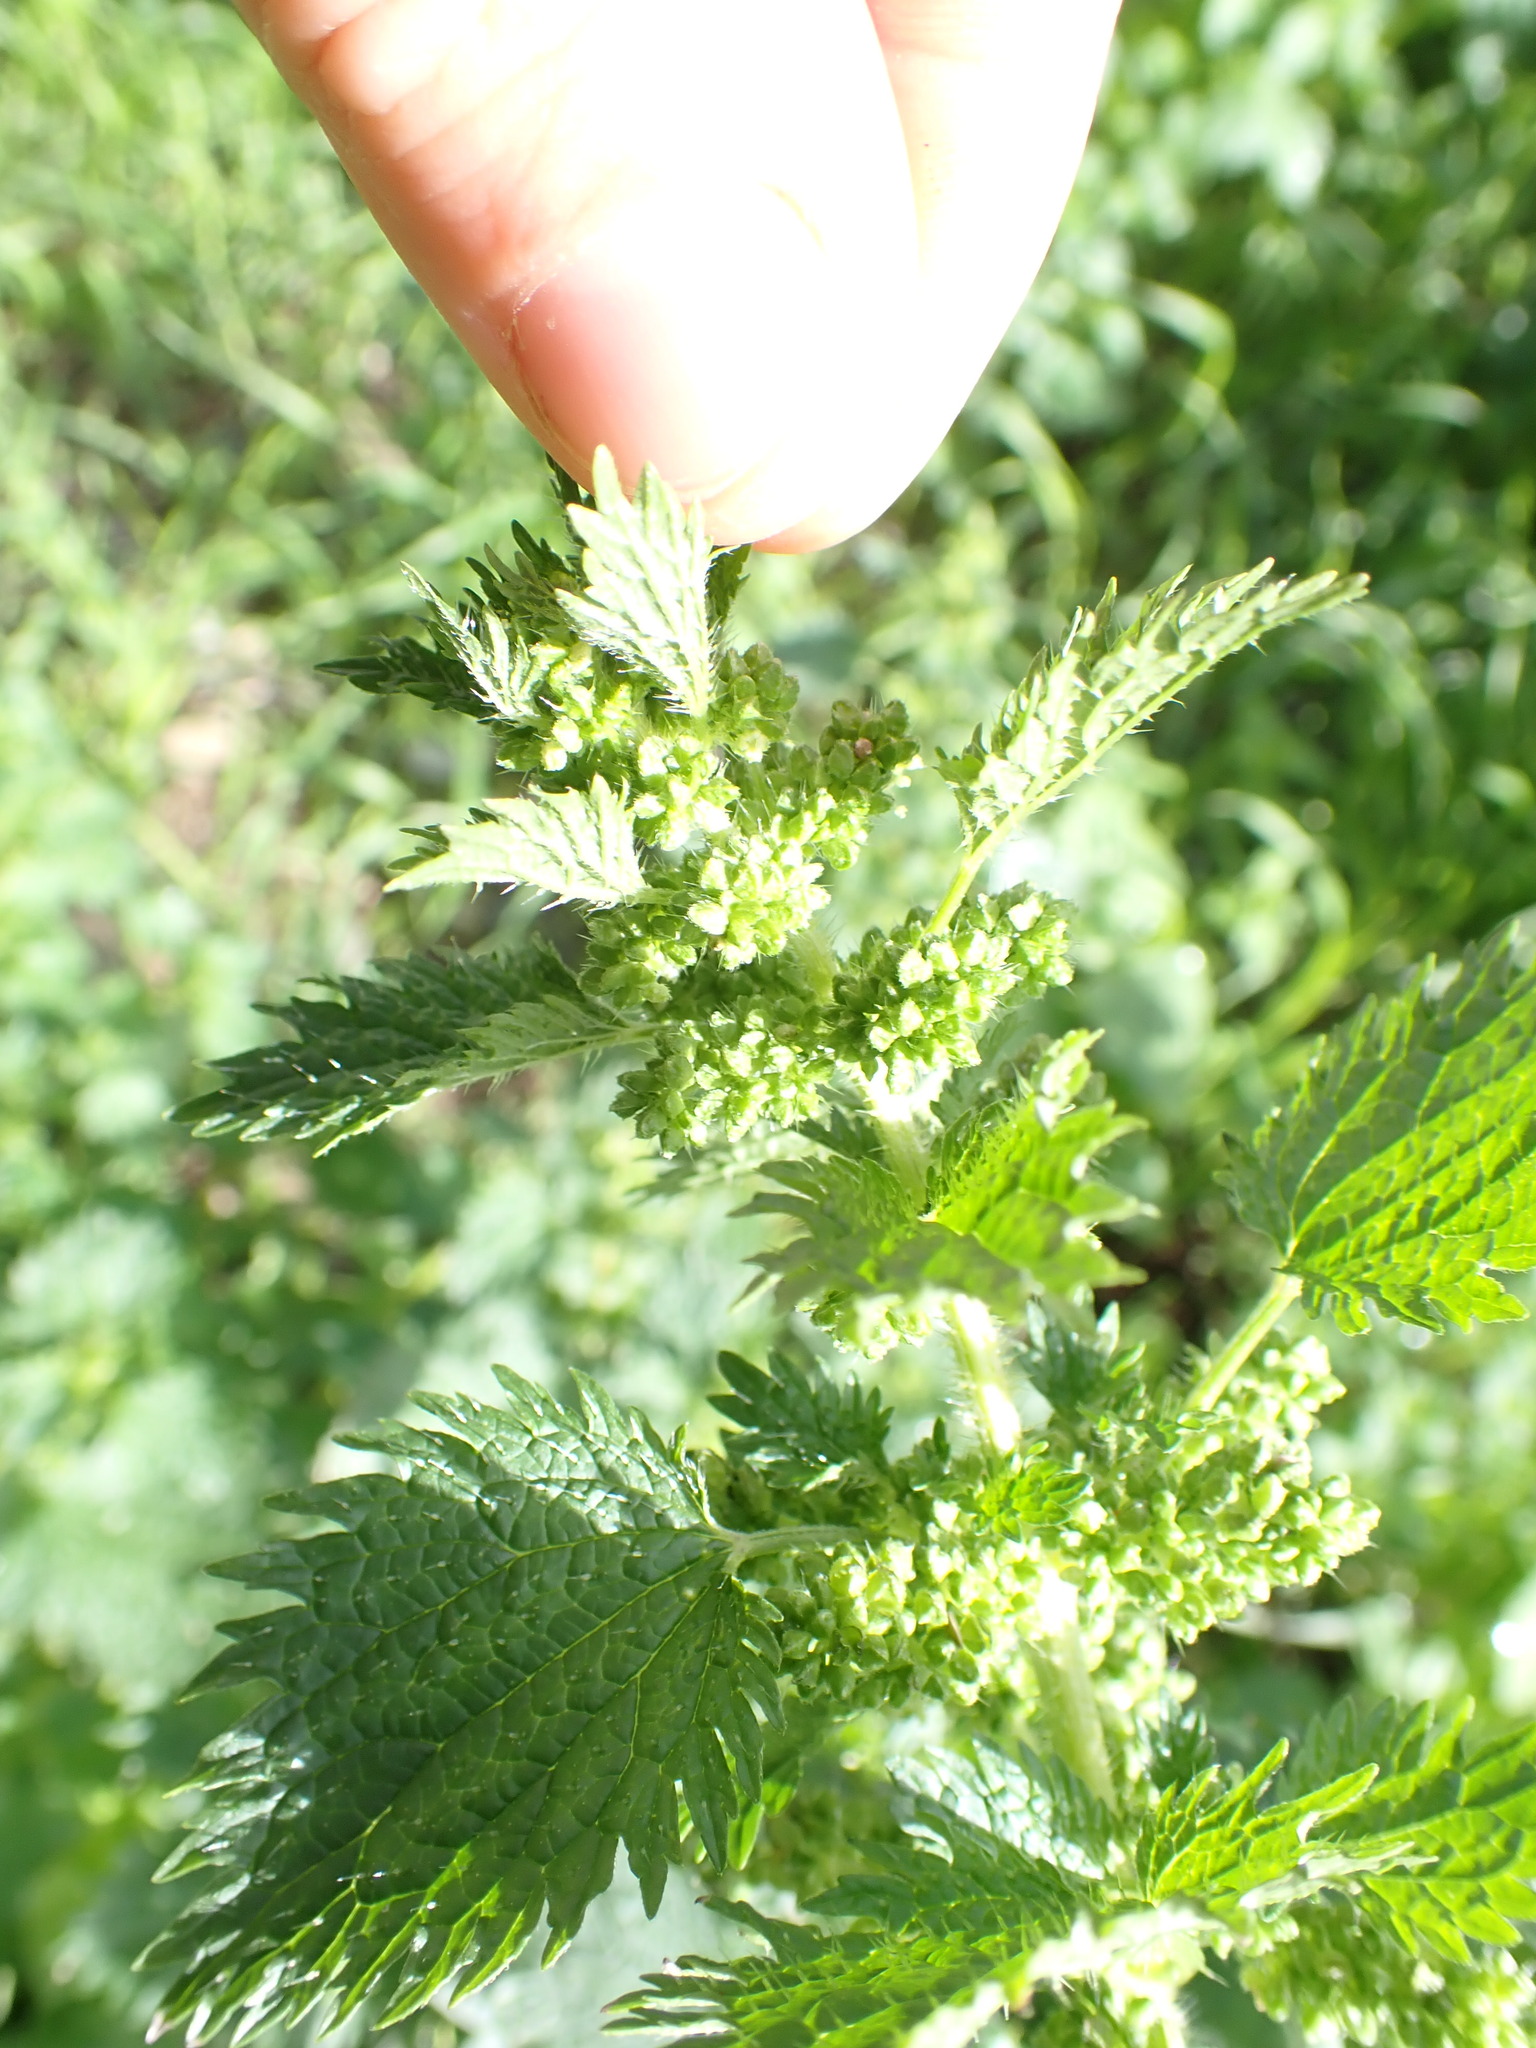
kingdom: Plantae
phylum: Tracheophyta
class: Magnoliopsida
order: Rosales
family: Urticaceae
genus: Urtica
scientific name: Urtica urens
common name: Dwarf nettle
